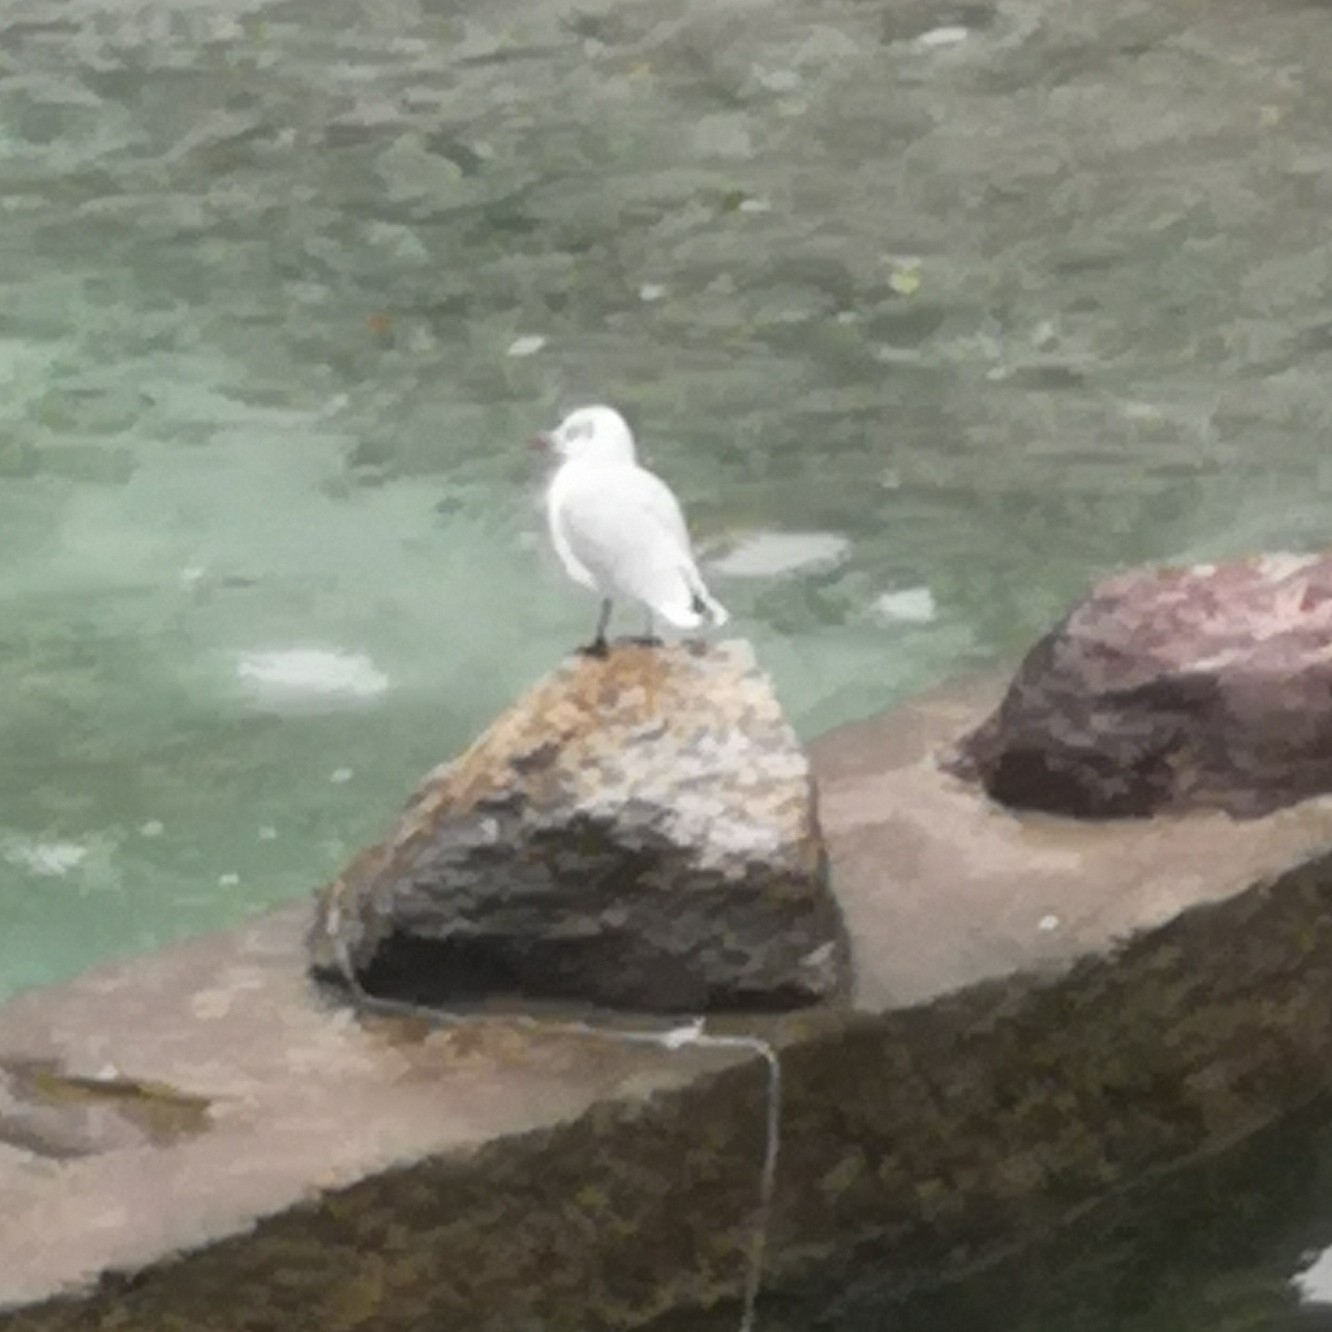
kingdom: Animalia
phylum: Chordata
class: Aves
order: Charadriiformes
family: Laridae
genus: Chroicocephalus
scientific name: Chroicocephalus ridibundus
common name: Black-headed gull
